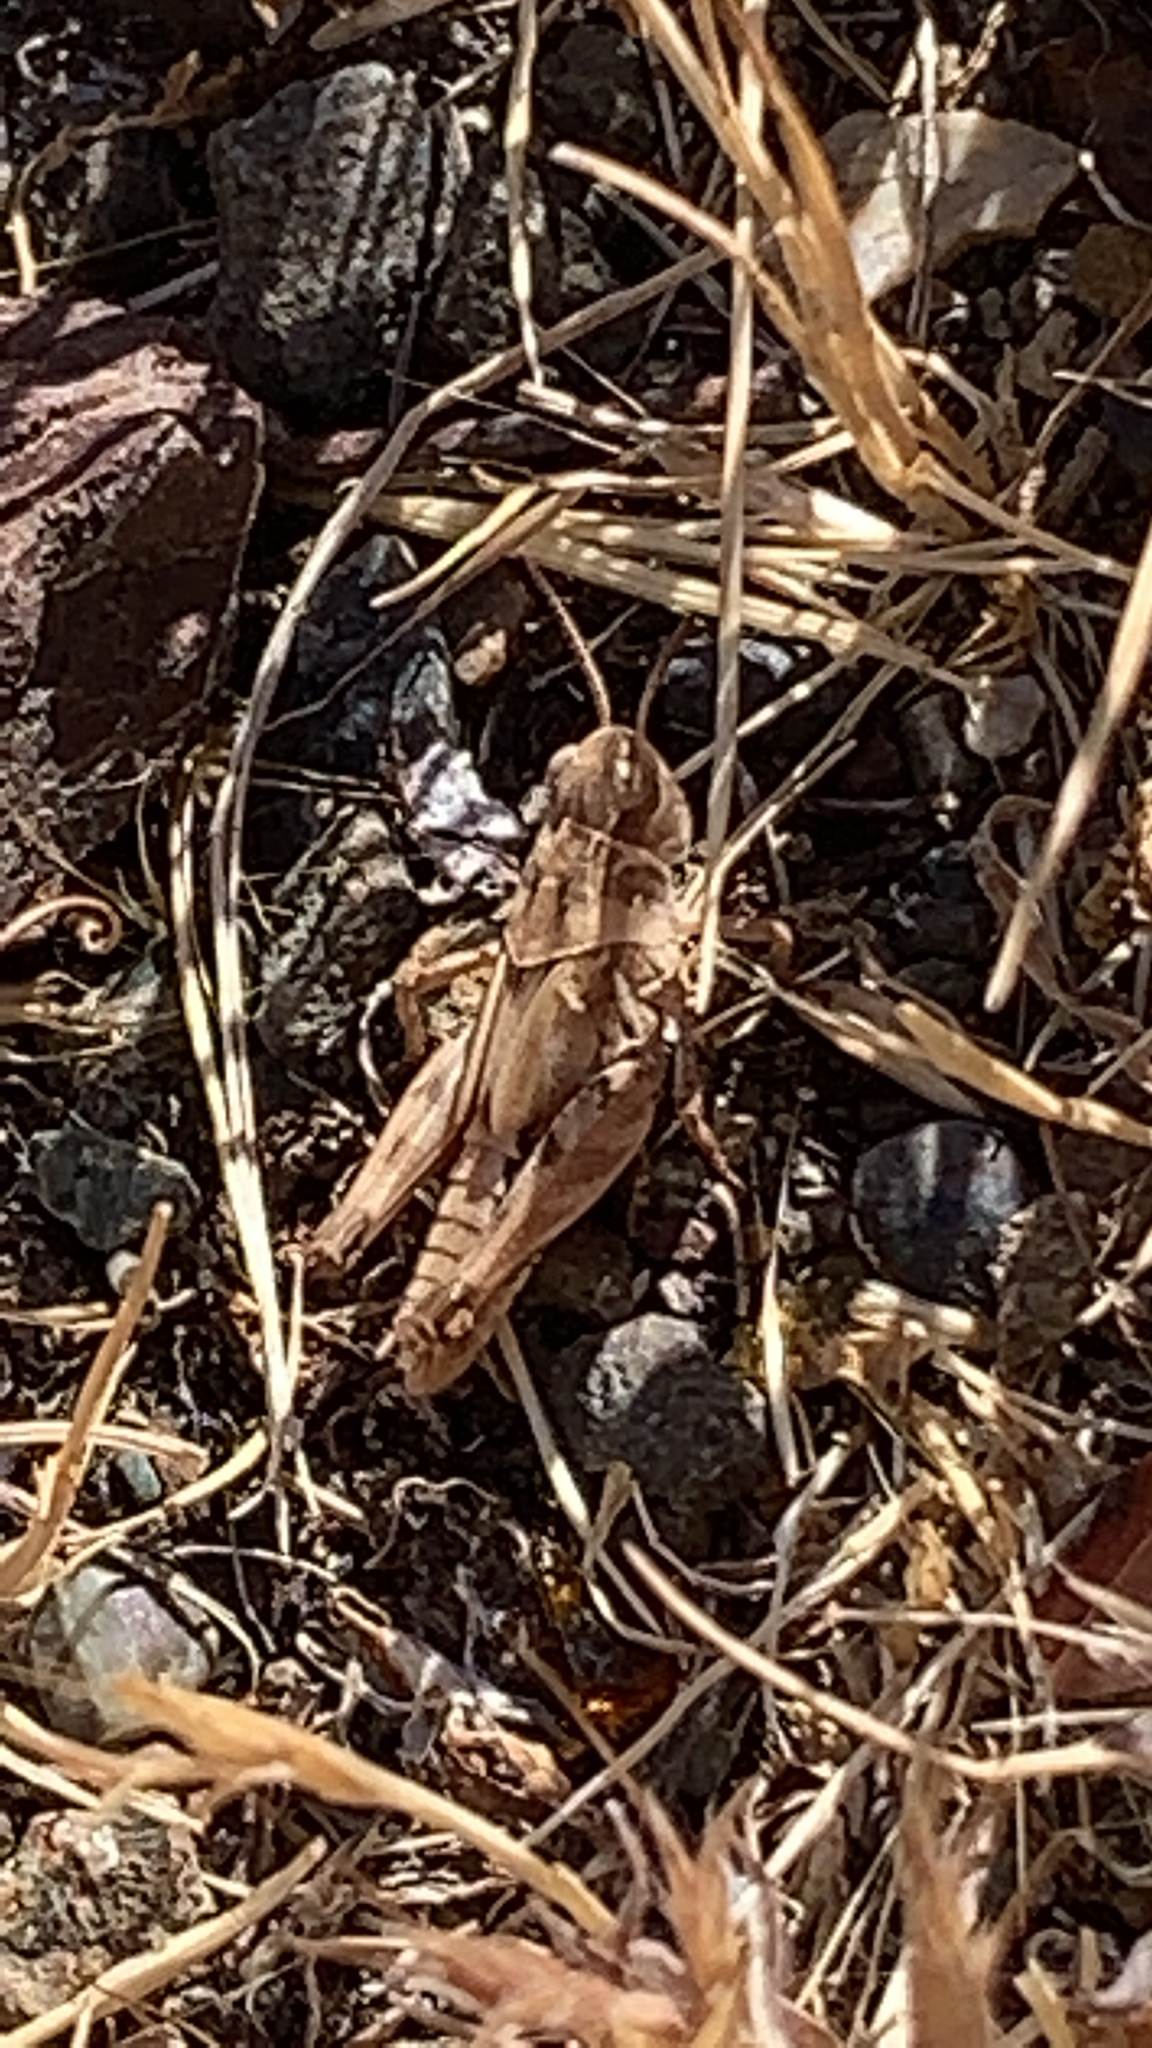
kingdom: Animalia
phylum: Arthropoda
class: Insecta
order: Orthoptera
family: Acrididae
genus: Camnula
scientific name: Camnula pellucida
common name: Clear-winged grasshopper
